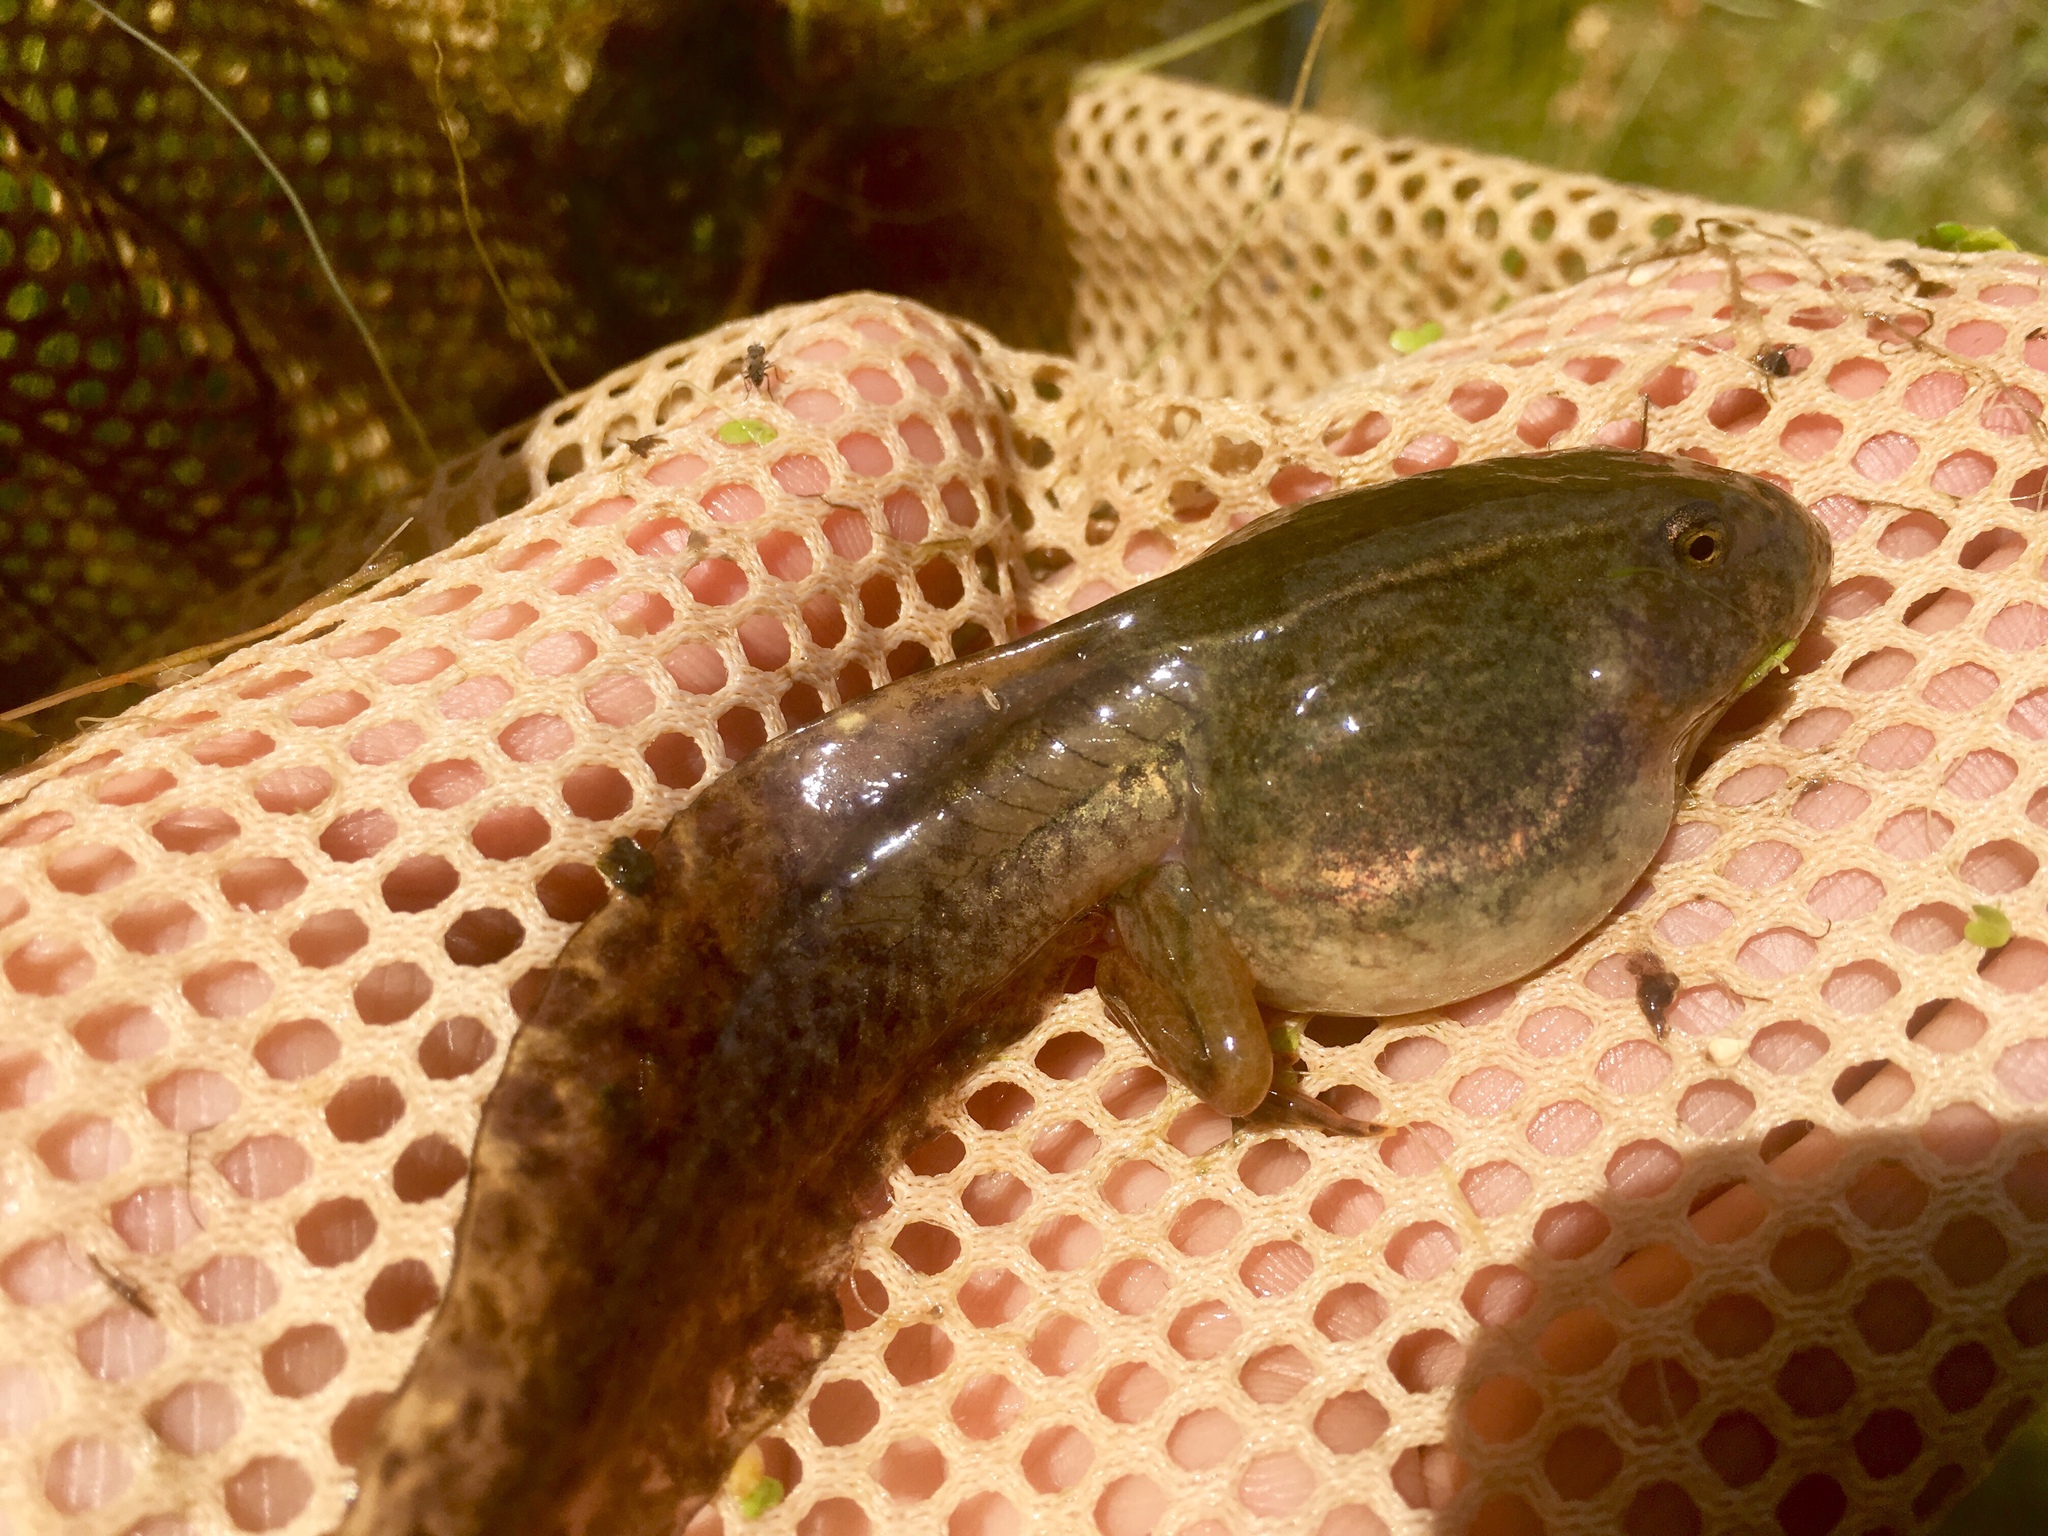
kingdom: Animalia
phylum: Chordata
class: Amphibia
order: Anura
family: Ranidae
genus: Lithobates
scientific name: Lithobates pipiens
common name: Northern leopard frog
